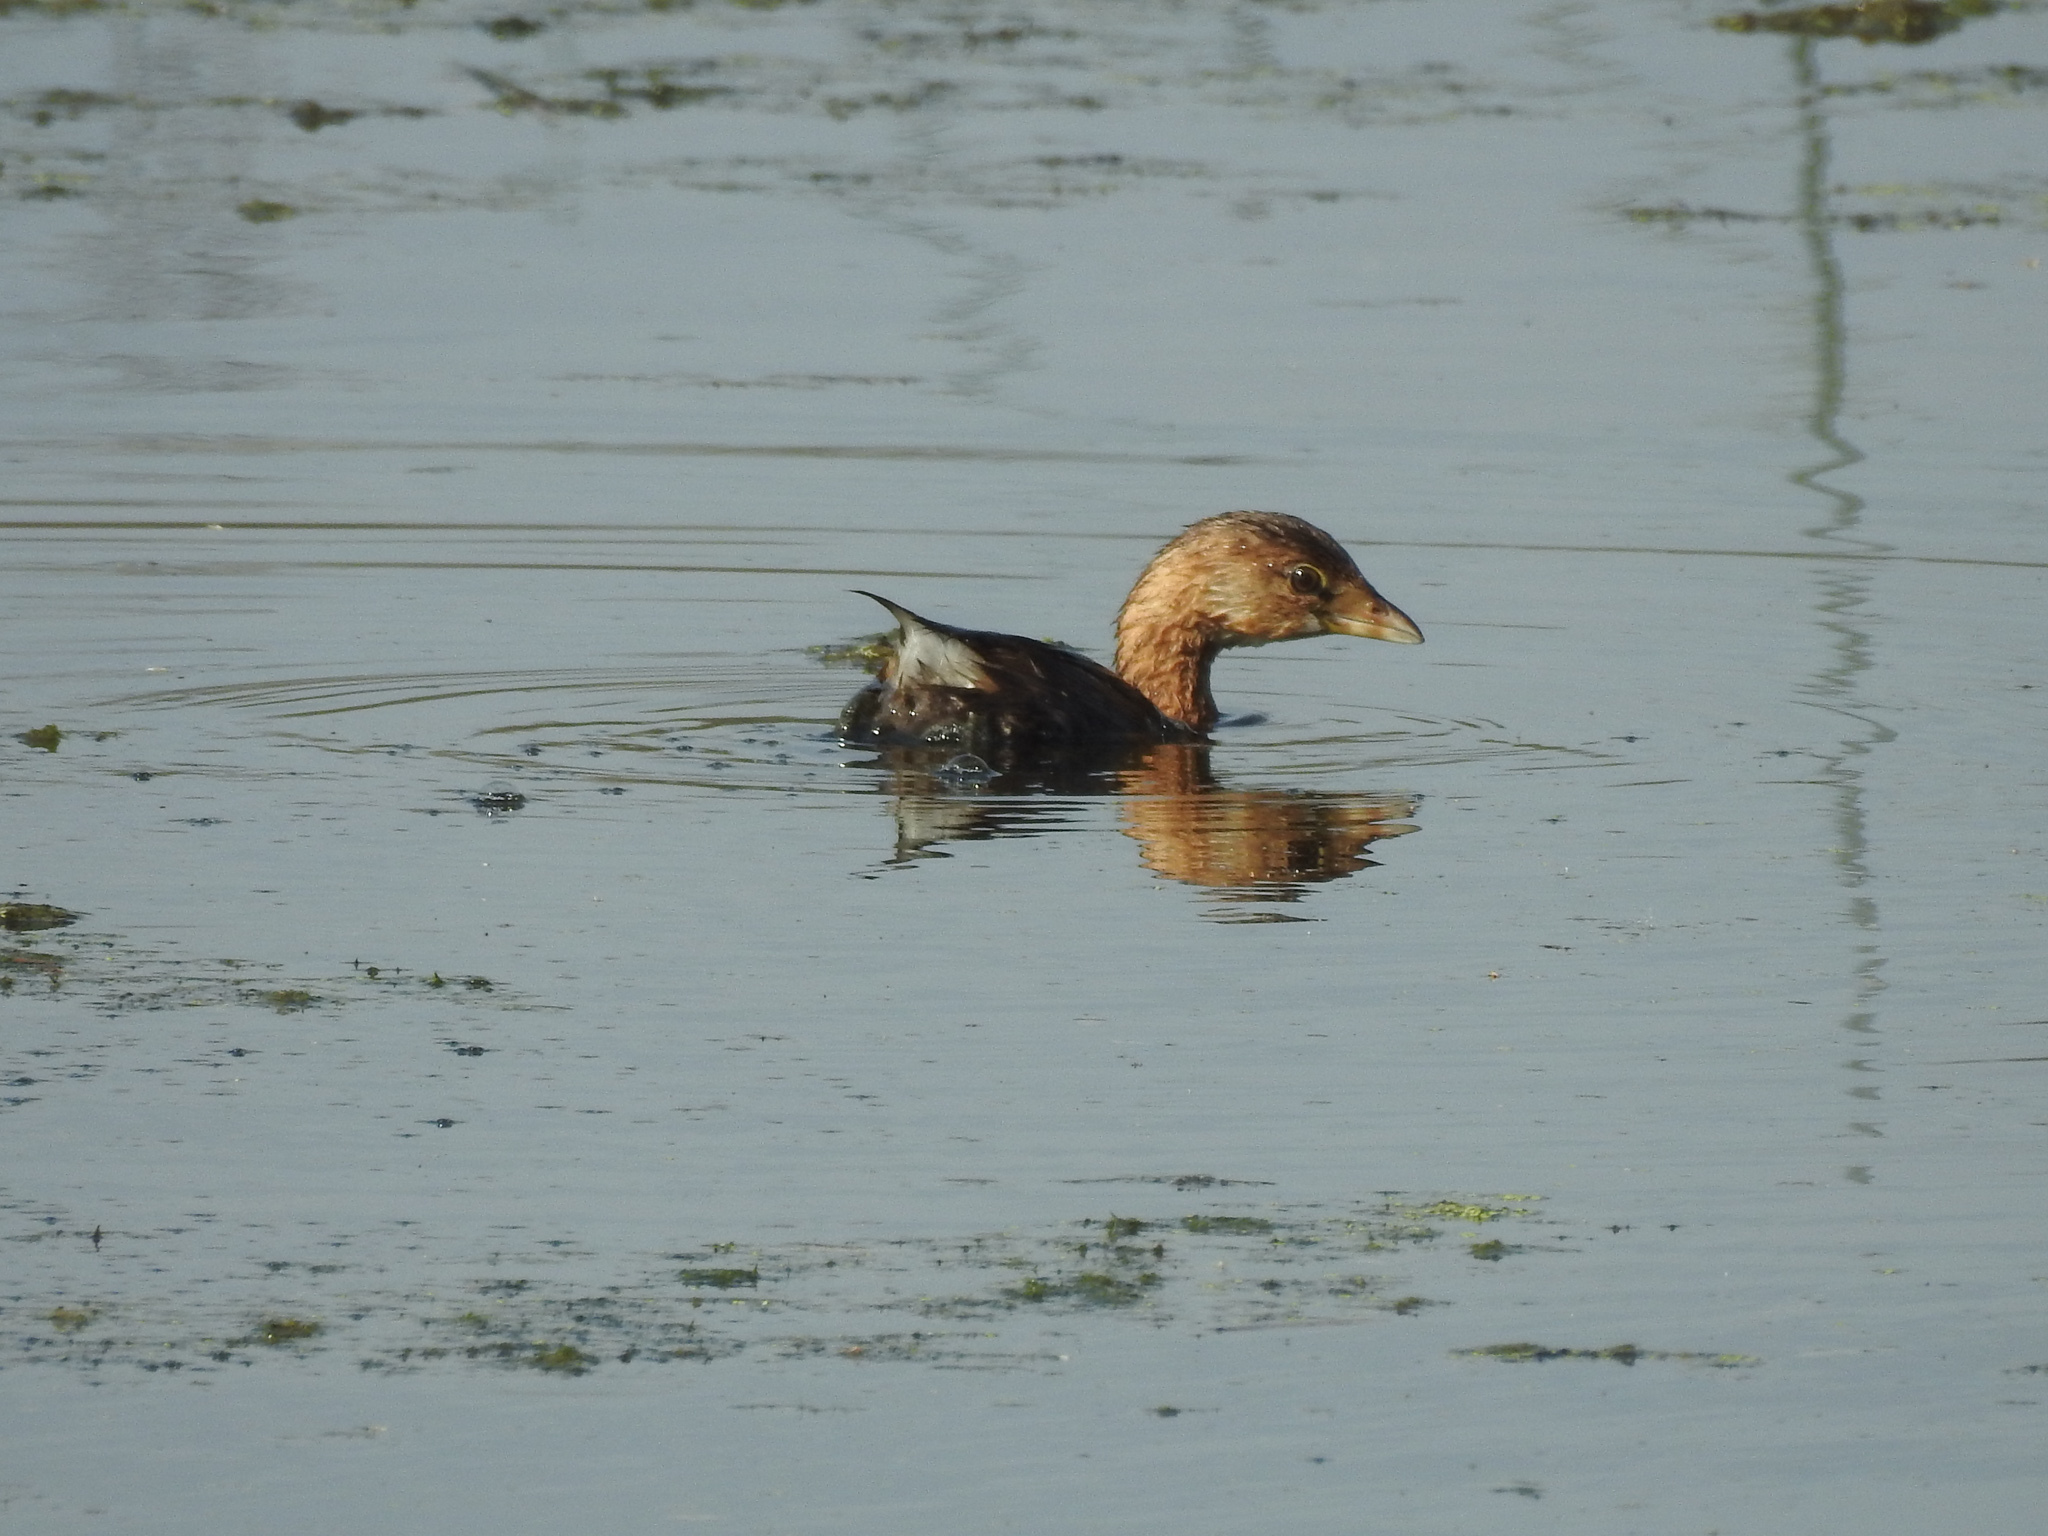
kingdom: Animalia
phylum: Chordata
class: Aves
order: Podicipediformes
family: Podicipedidae
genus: Podilymbus
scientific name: Podilymbus podiceps
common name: Pied-billed grebe
